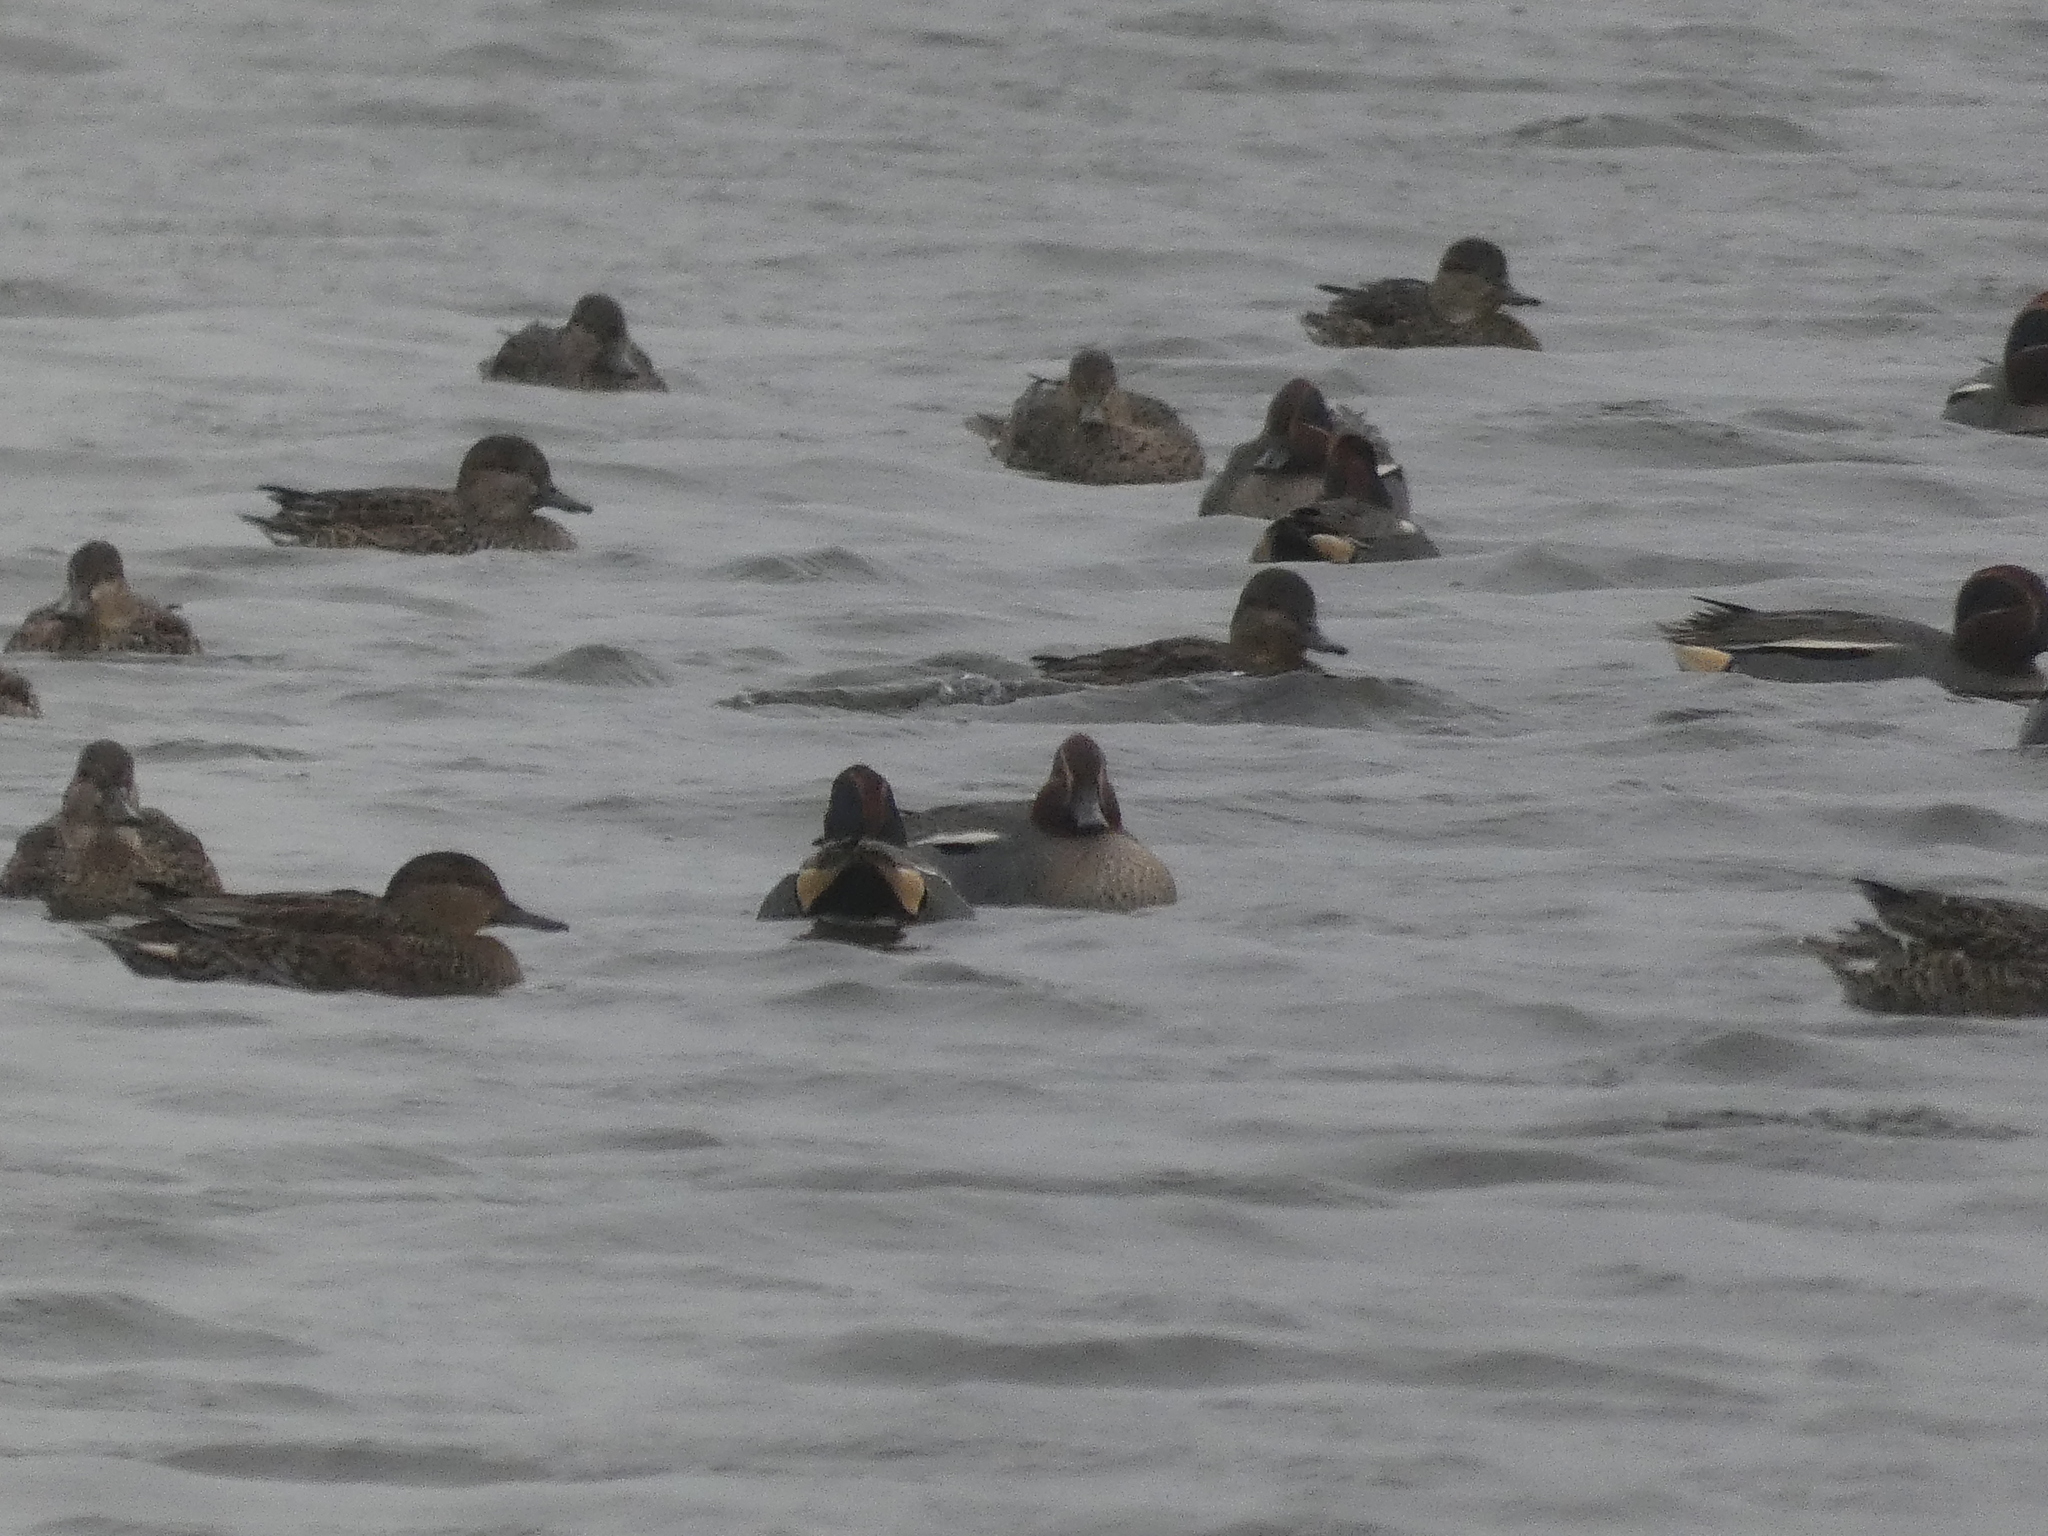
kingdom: Animalia
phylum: Chordata
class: Aves
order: Anseriformes
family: Anatidae
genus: Anas
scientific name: Anas crecca
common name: Eurasian teal
